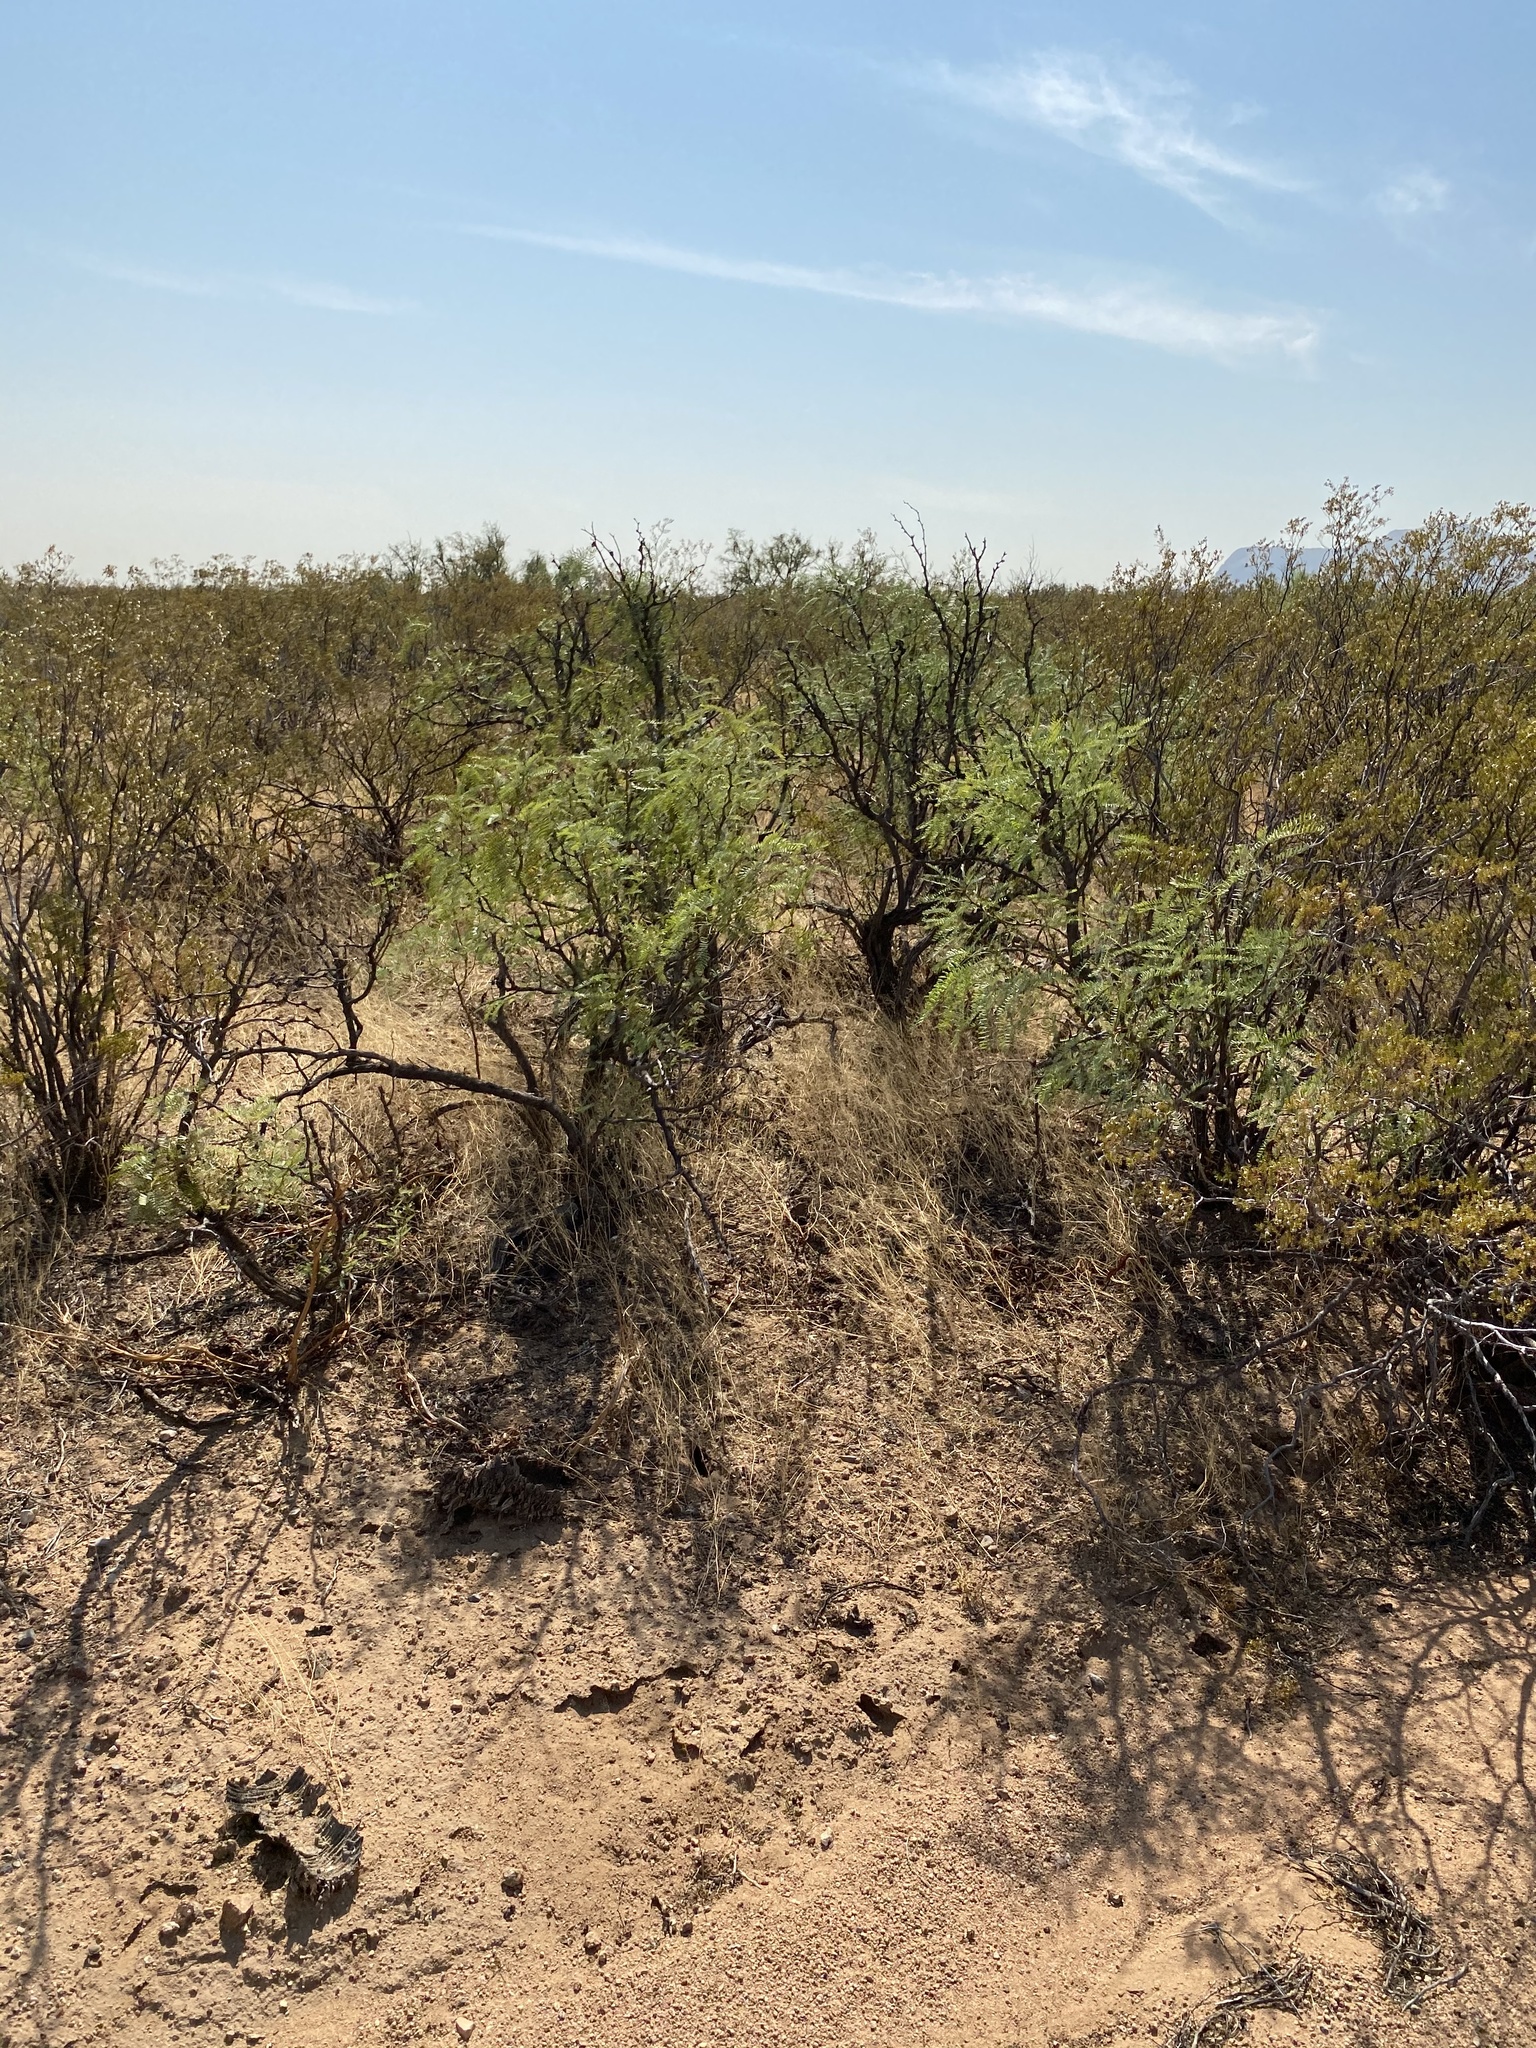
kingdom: Plantae
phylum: Tracheophyta
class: Magnoliopsida
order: Fabales
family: Fabaceae
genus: Prosopis
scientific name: Prosopis glandulosa
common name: Honey mesquite
